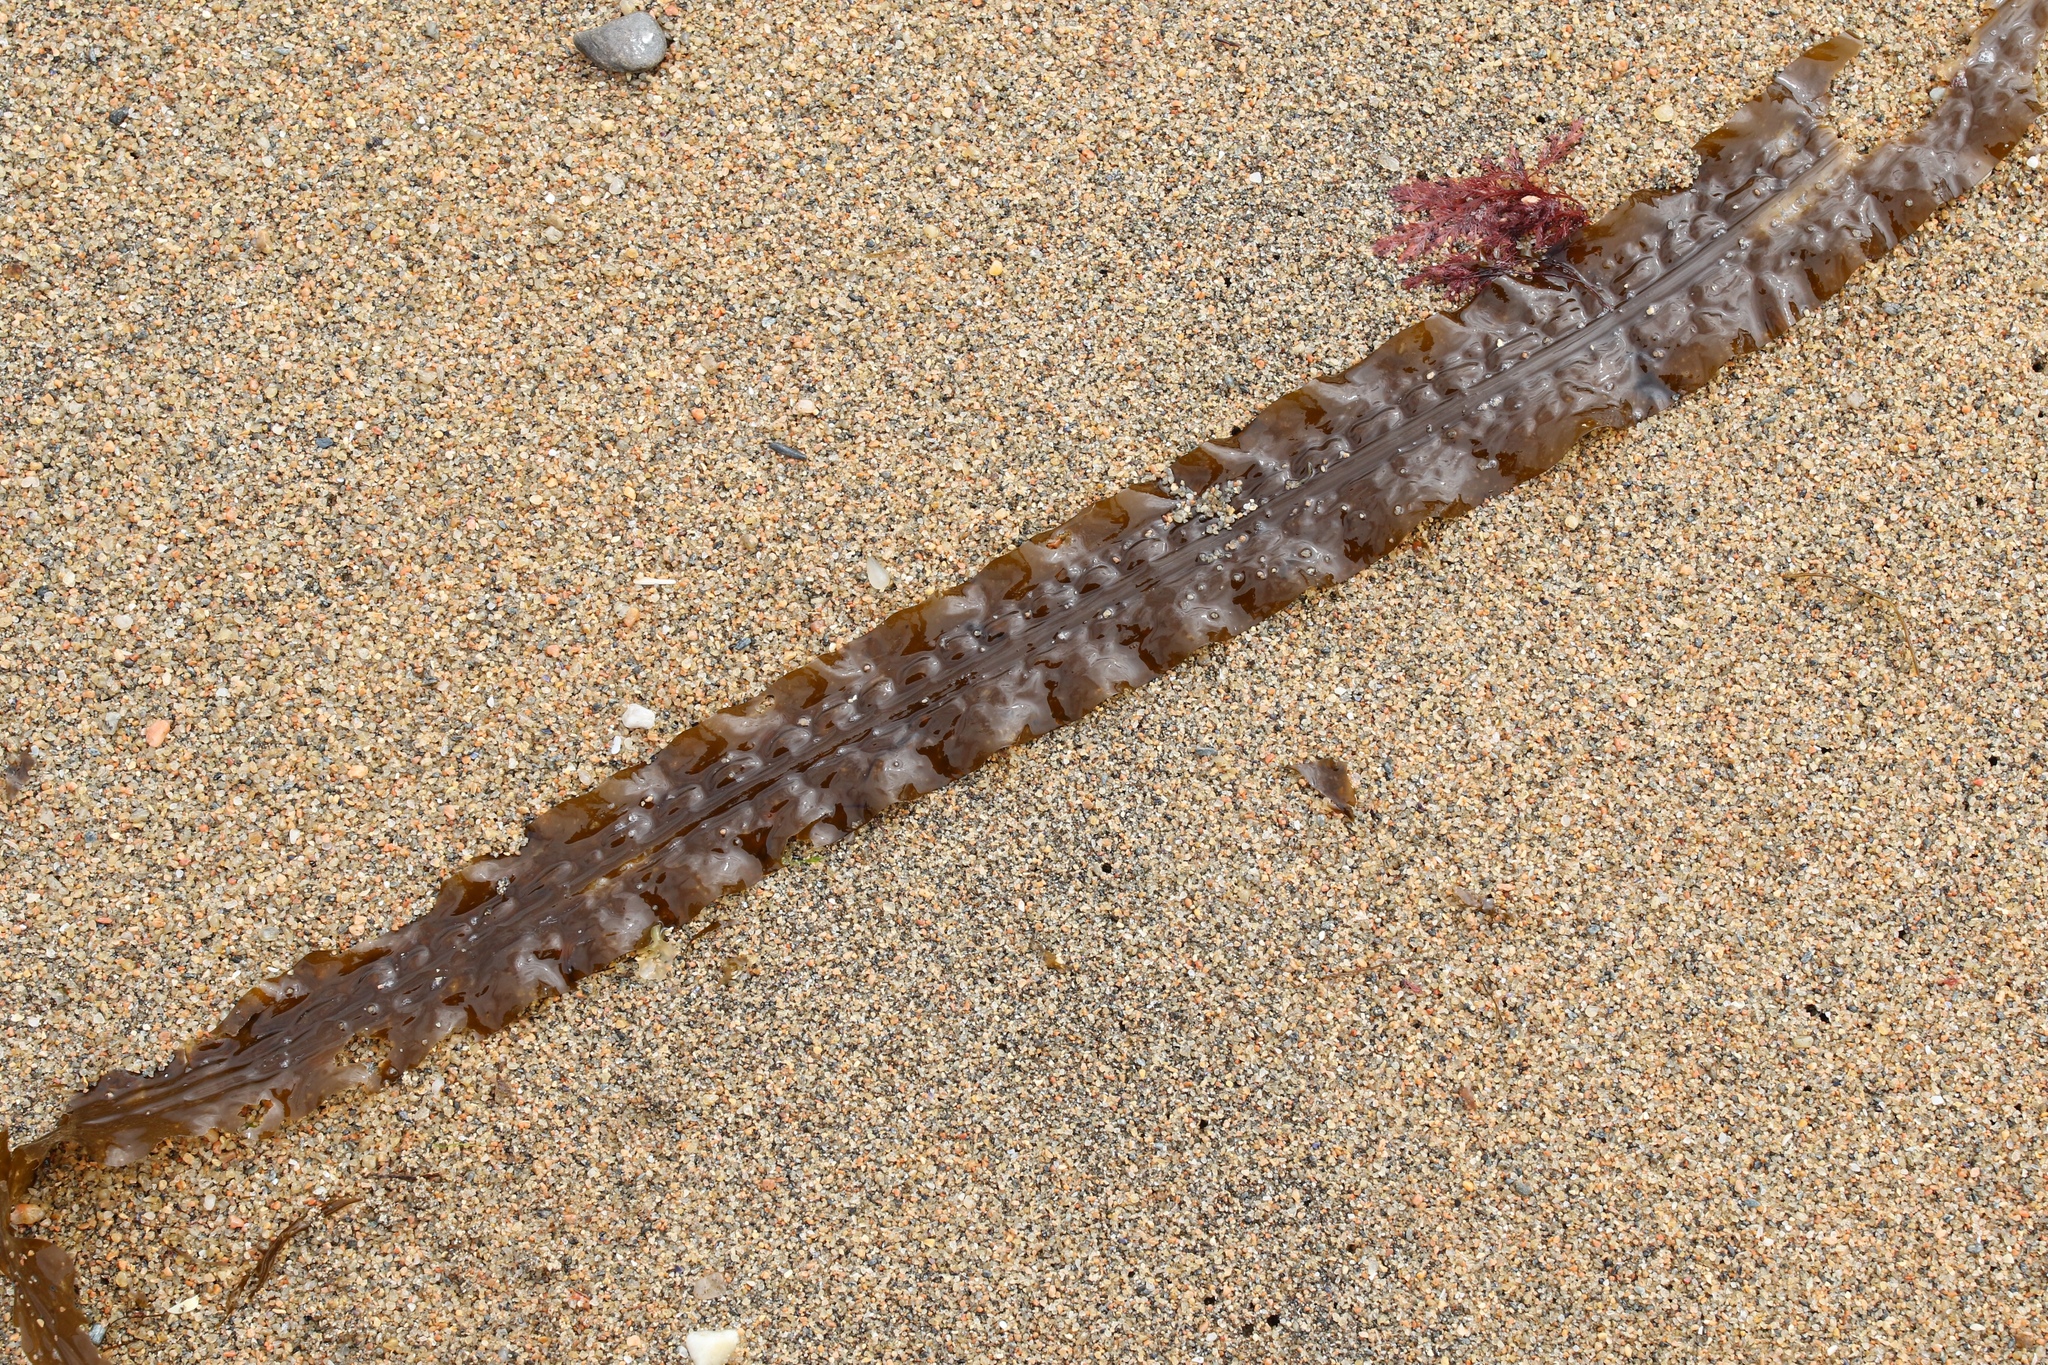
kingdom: Chromista
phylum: Ochrophyta
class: Phaeophyceae
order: Laminariales
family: Laminariaceae
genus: Saccharina
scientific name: Saccharina latissima
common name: Poor man's weather glass
